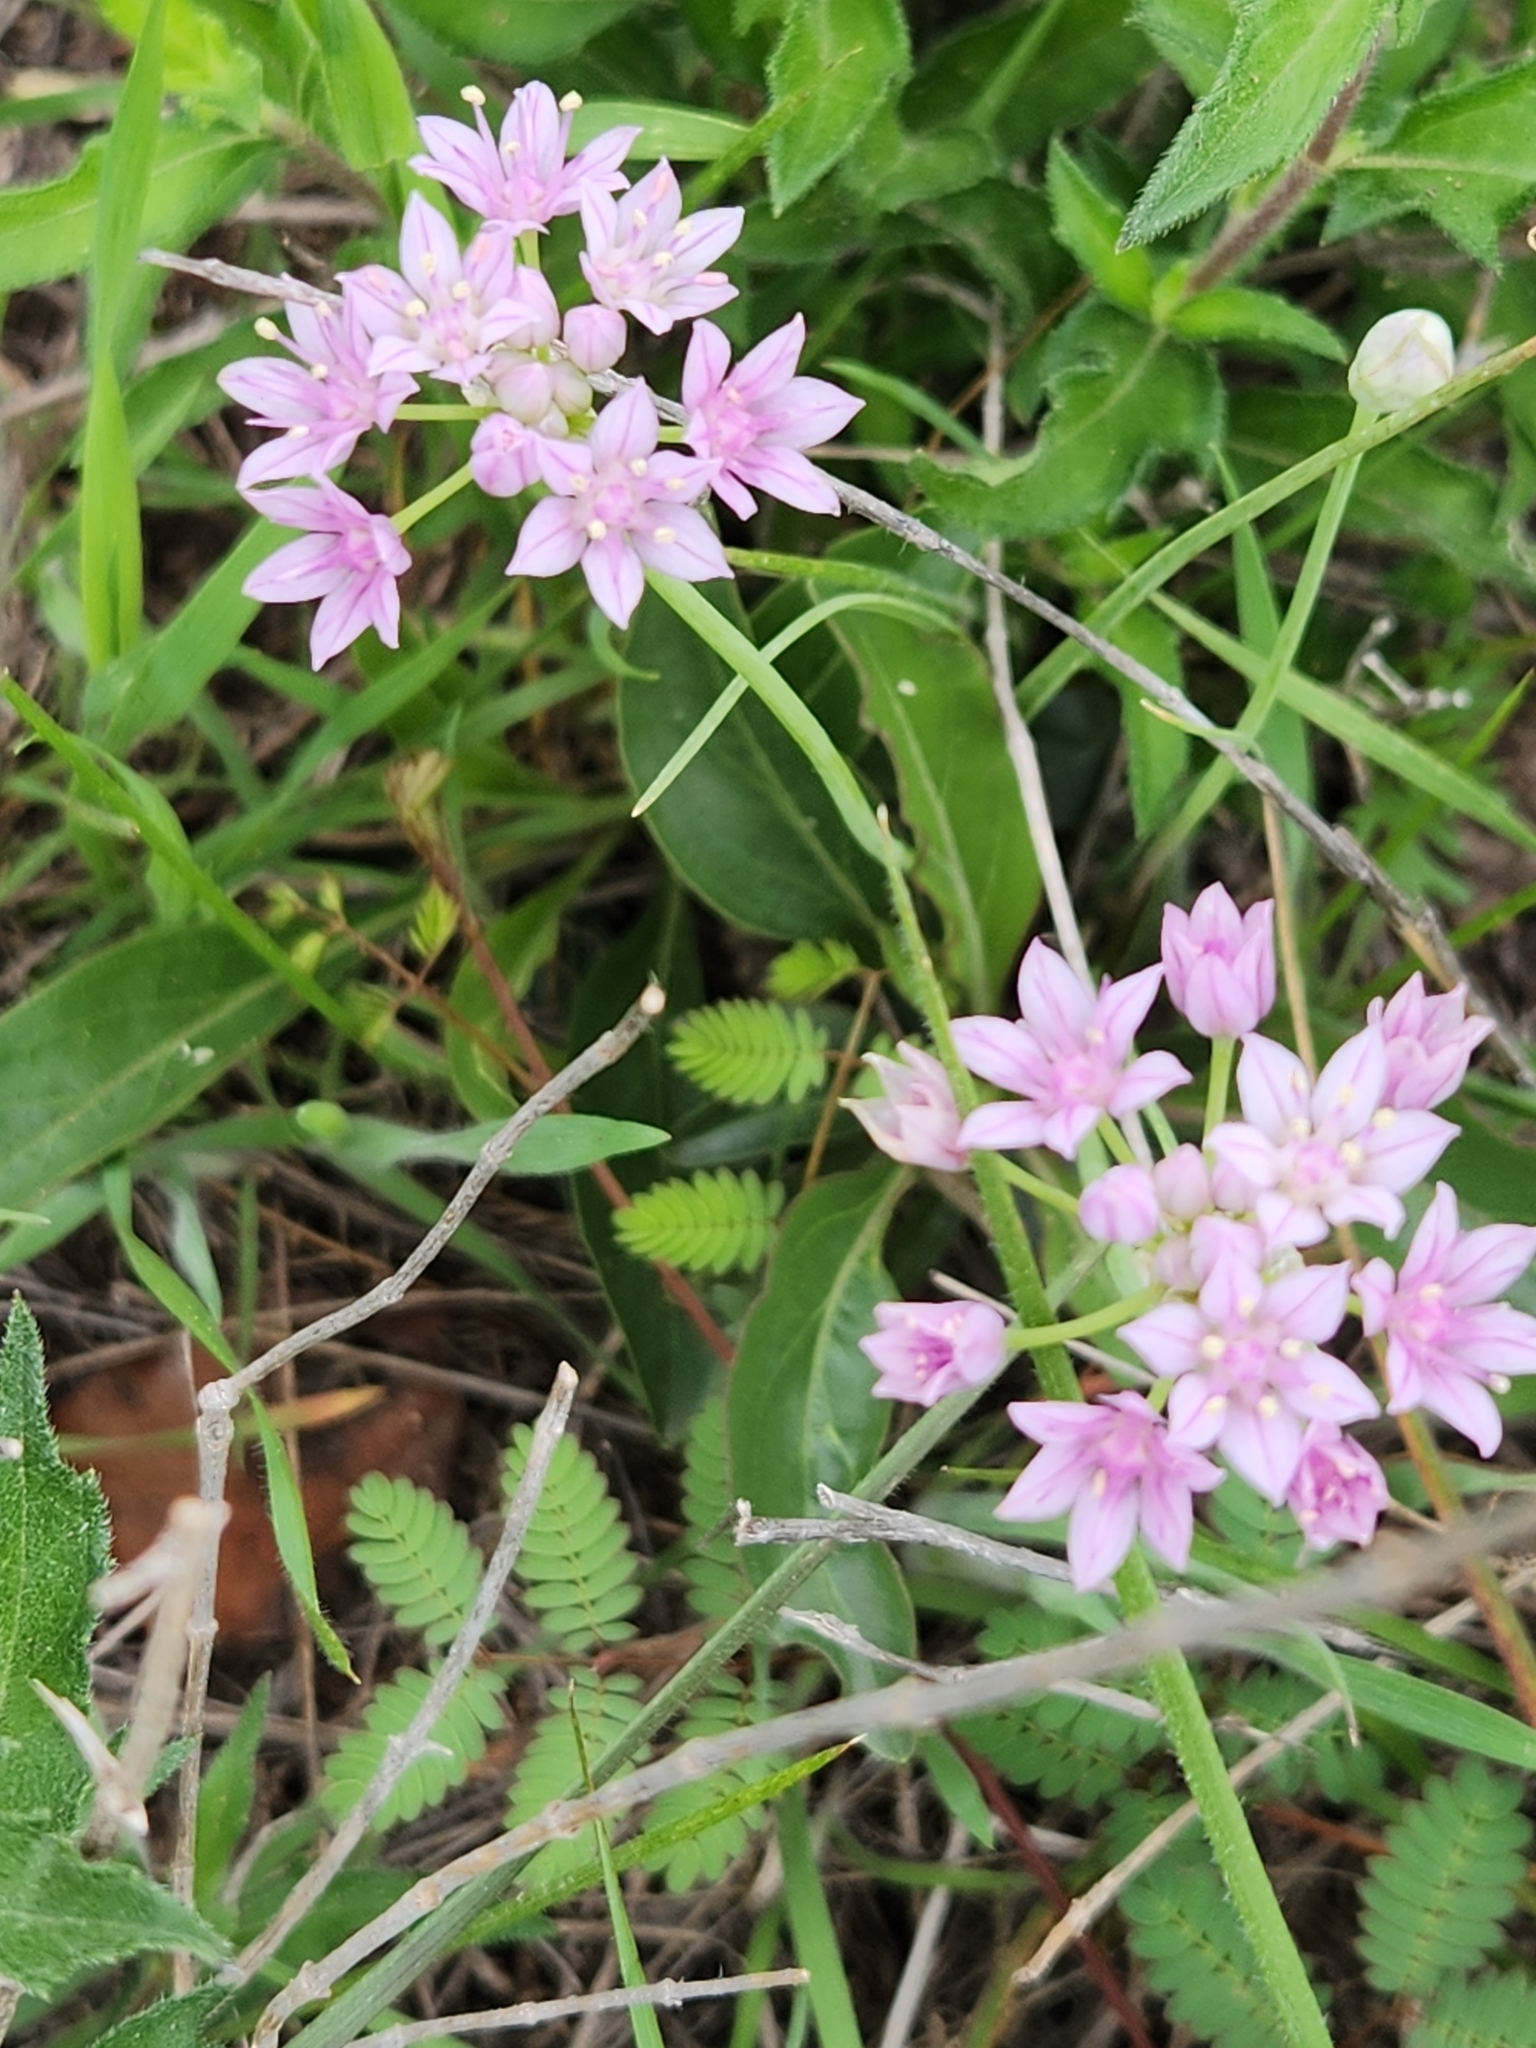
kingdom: Plantae
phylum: Tracheophyta
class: Liliopsida
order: Asparagales
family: Amaryllidaceae
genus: Allium
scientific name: Allium drummondii
